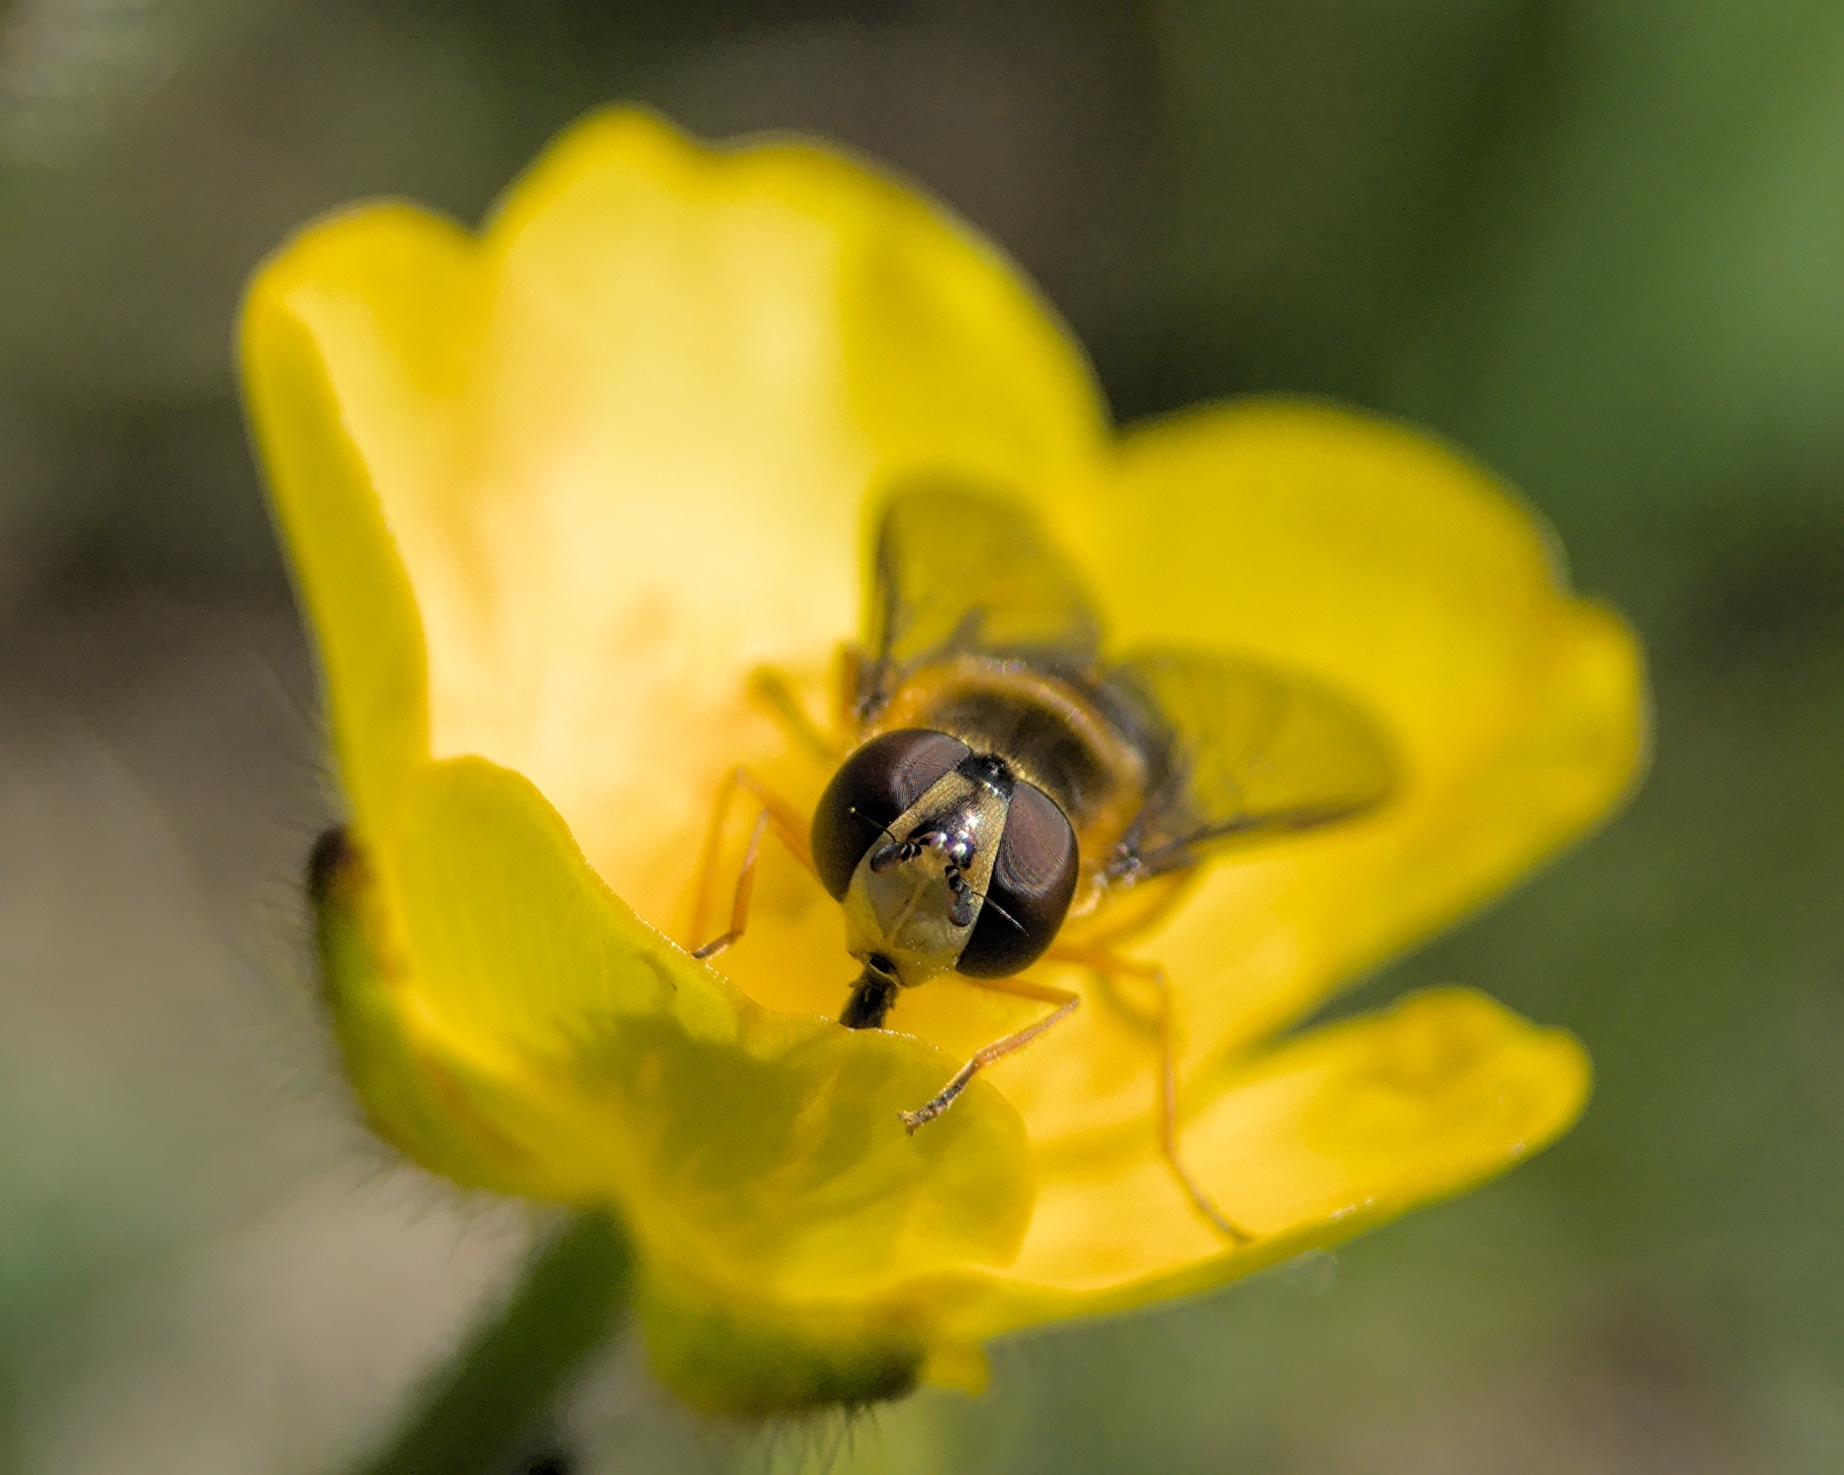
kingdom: Animalia
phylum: Arthropoda
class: Insecta
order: Diptera
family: Syrphidae
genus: Syrphus
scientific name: Syrphus ribesii
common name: Common flower fly
